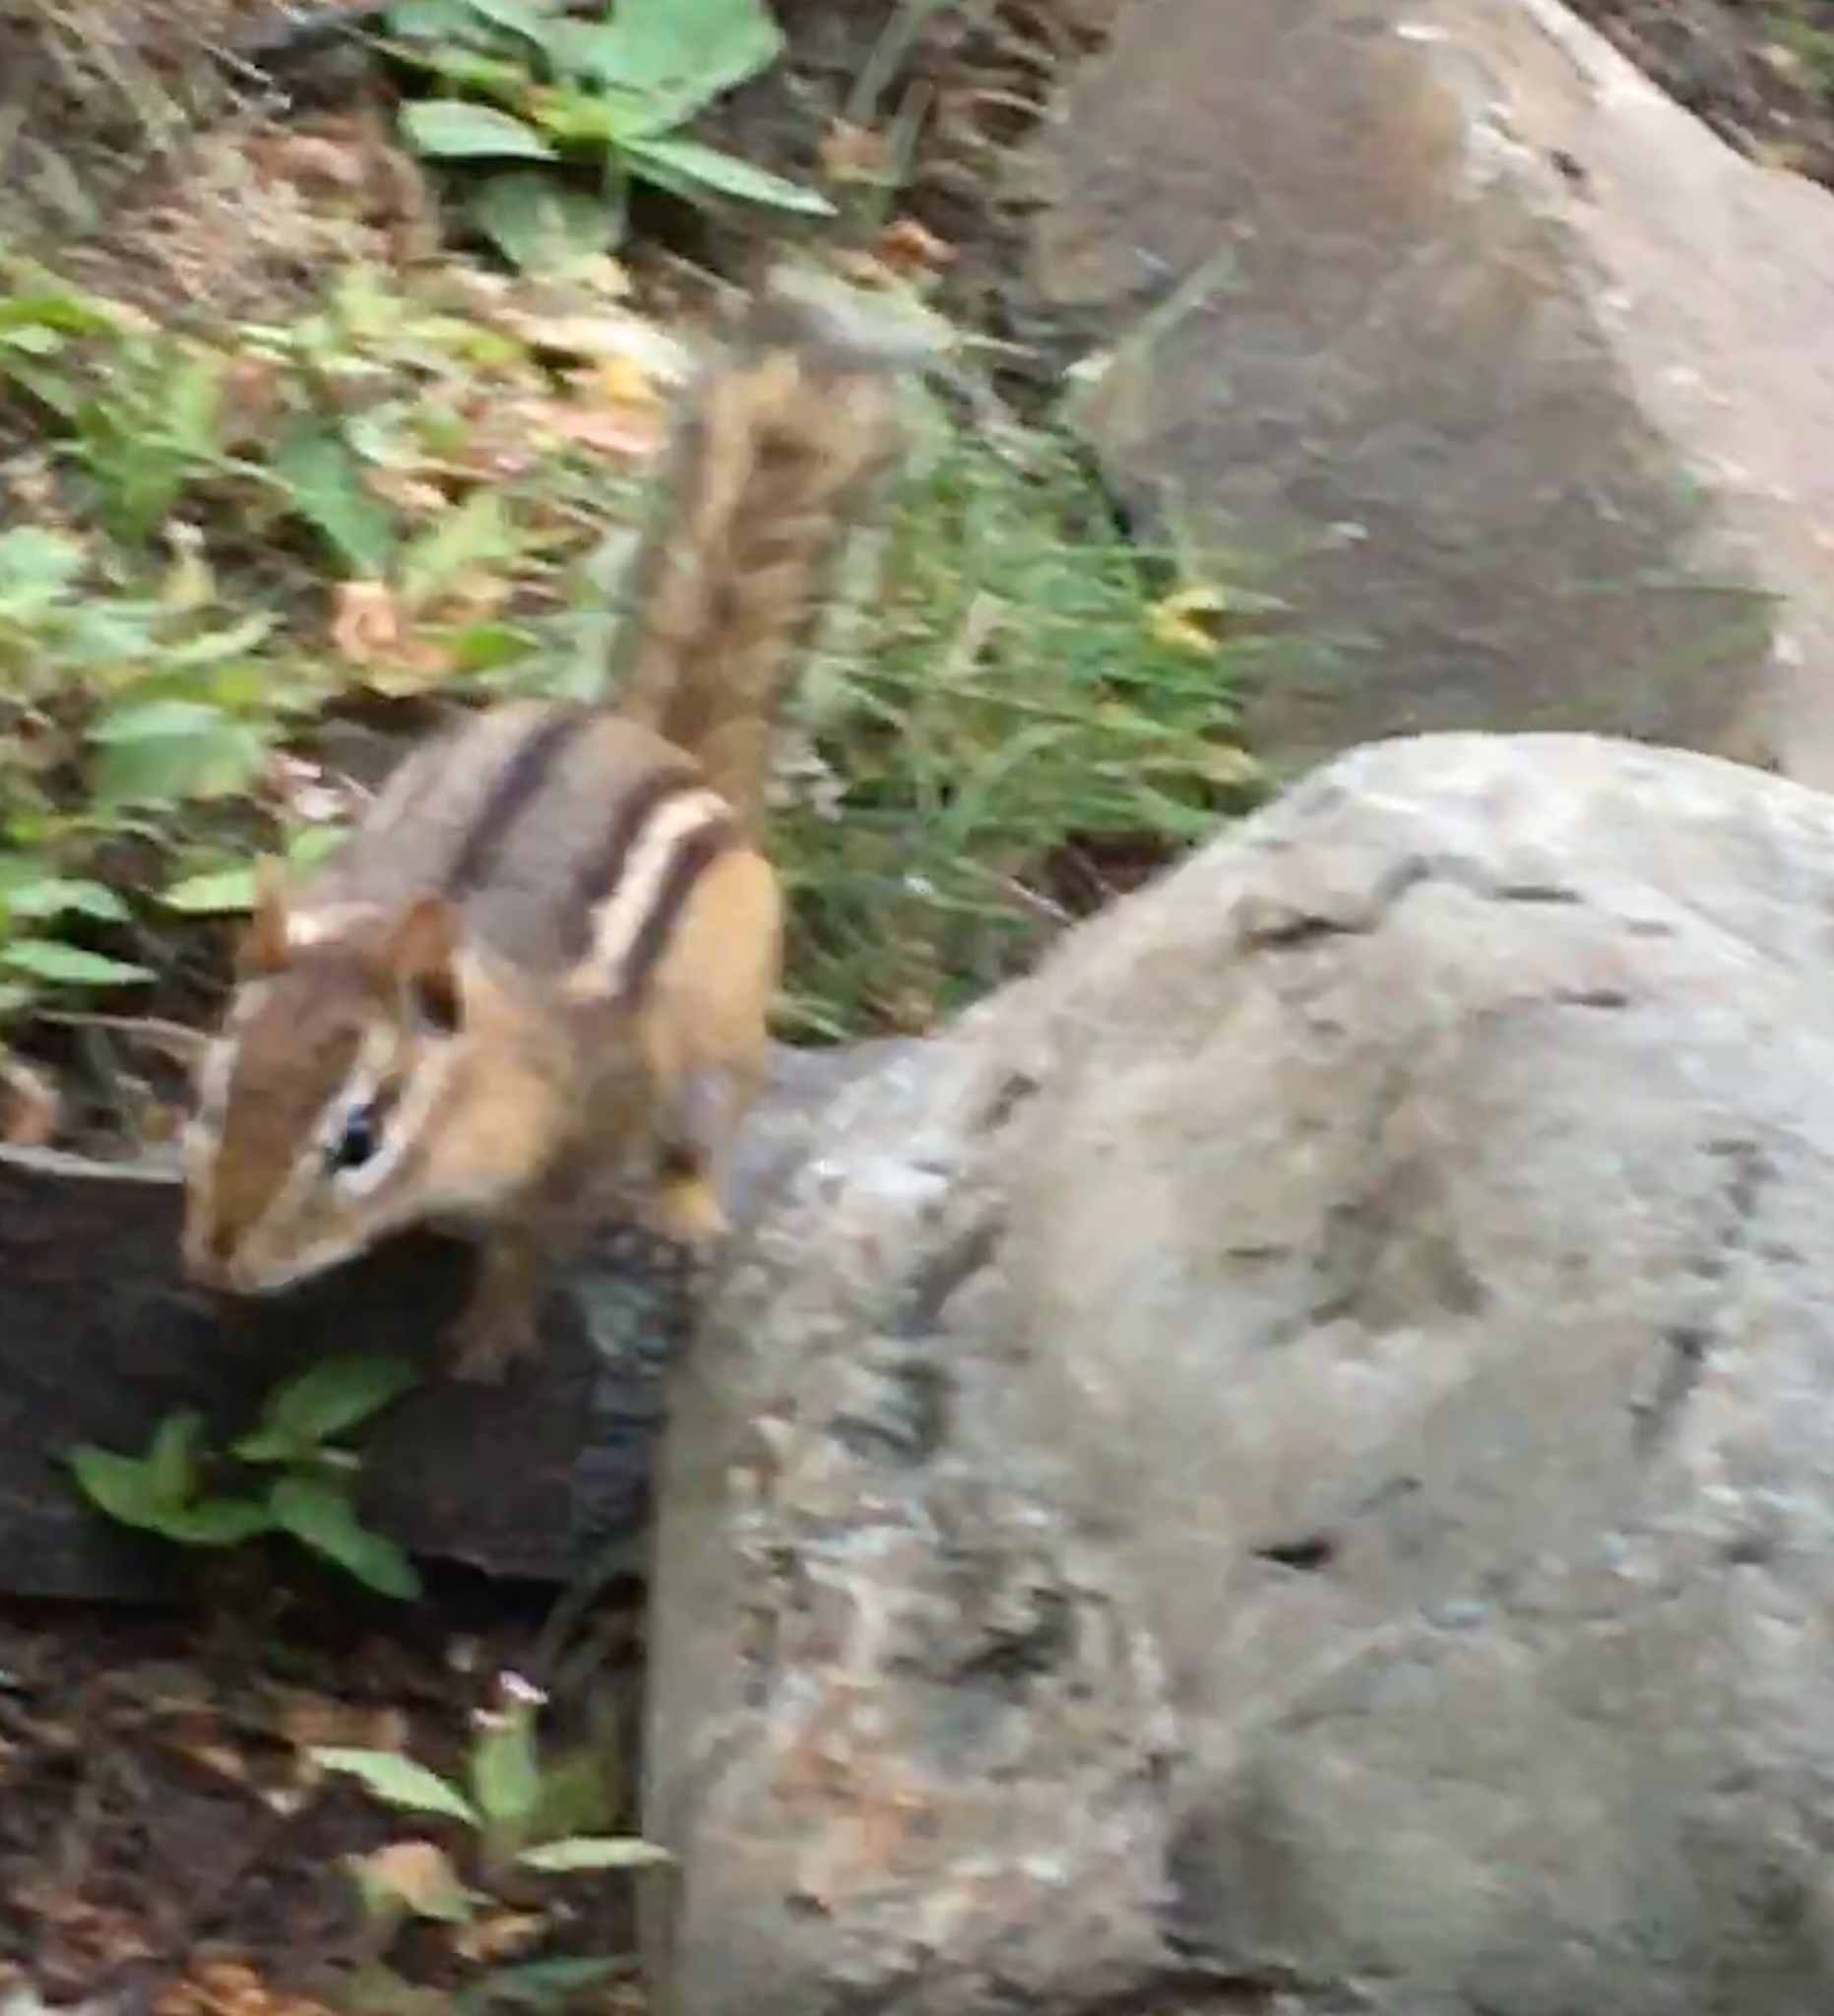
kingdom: Animalia
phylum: Chordata
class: Mammalia
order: Rodentia
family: Sciuridae
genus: Tamias
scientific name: Tamias striatus
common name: Eastern chipmunk
